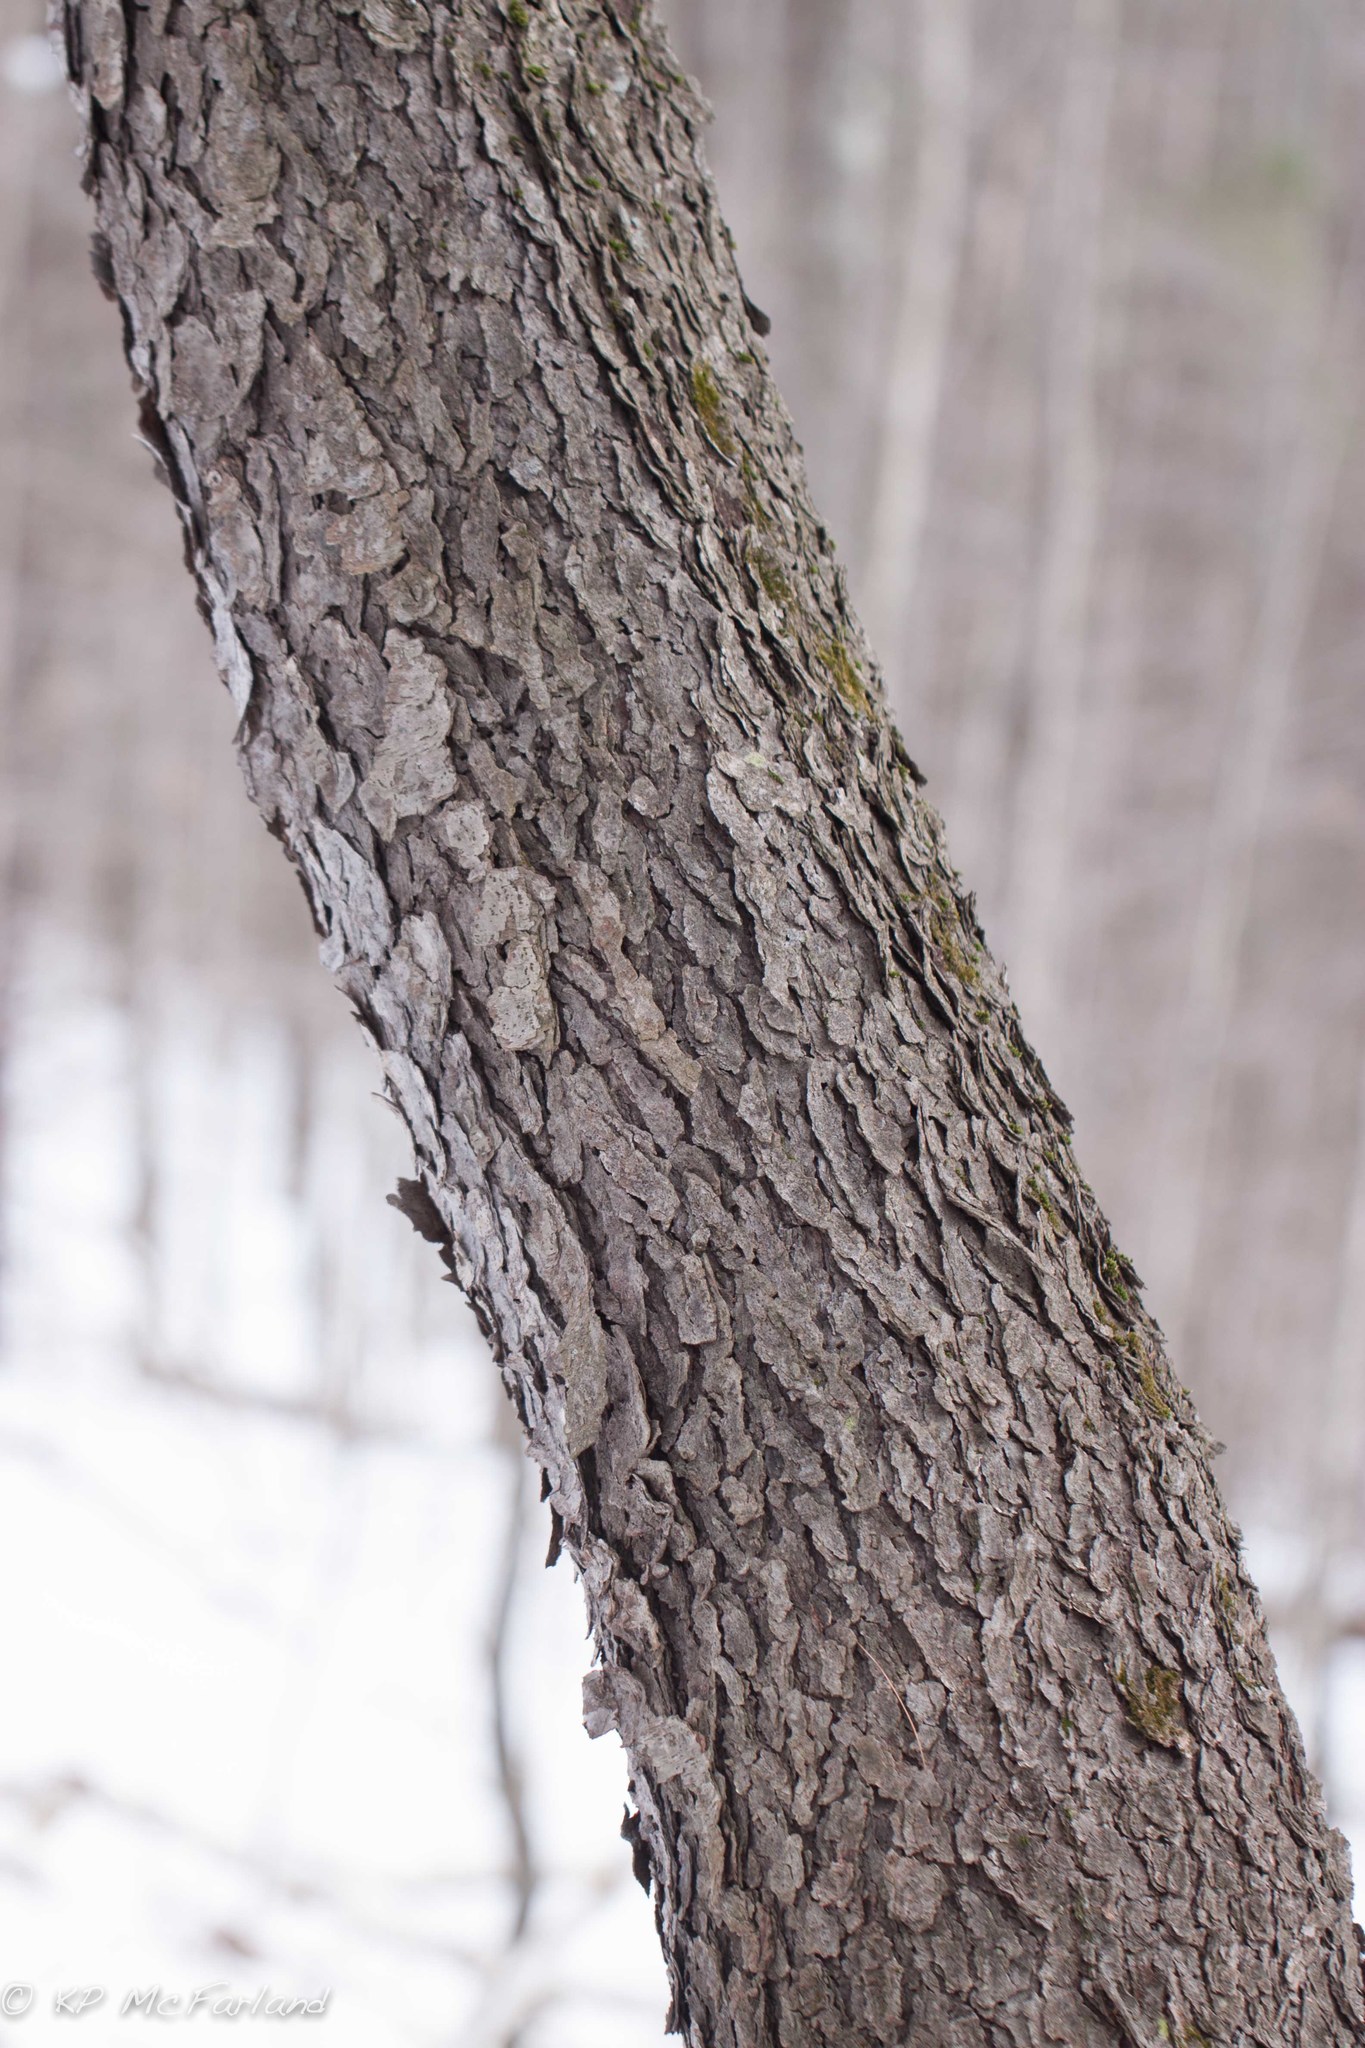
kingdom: Plantae
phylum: Tracheophyta
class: Magnoliopsida
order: Rosales
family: Rosaceae
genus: Prunus
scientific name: Prunus serotina
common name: Black cherry
